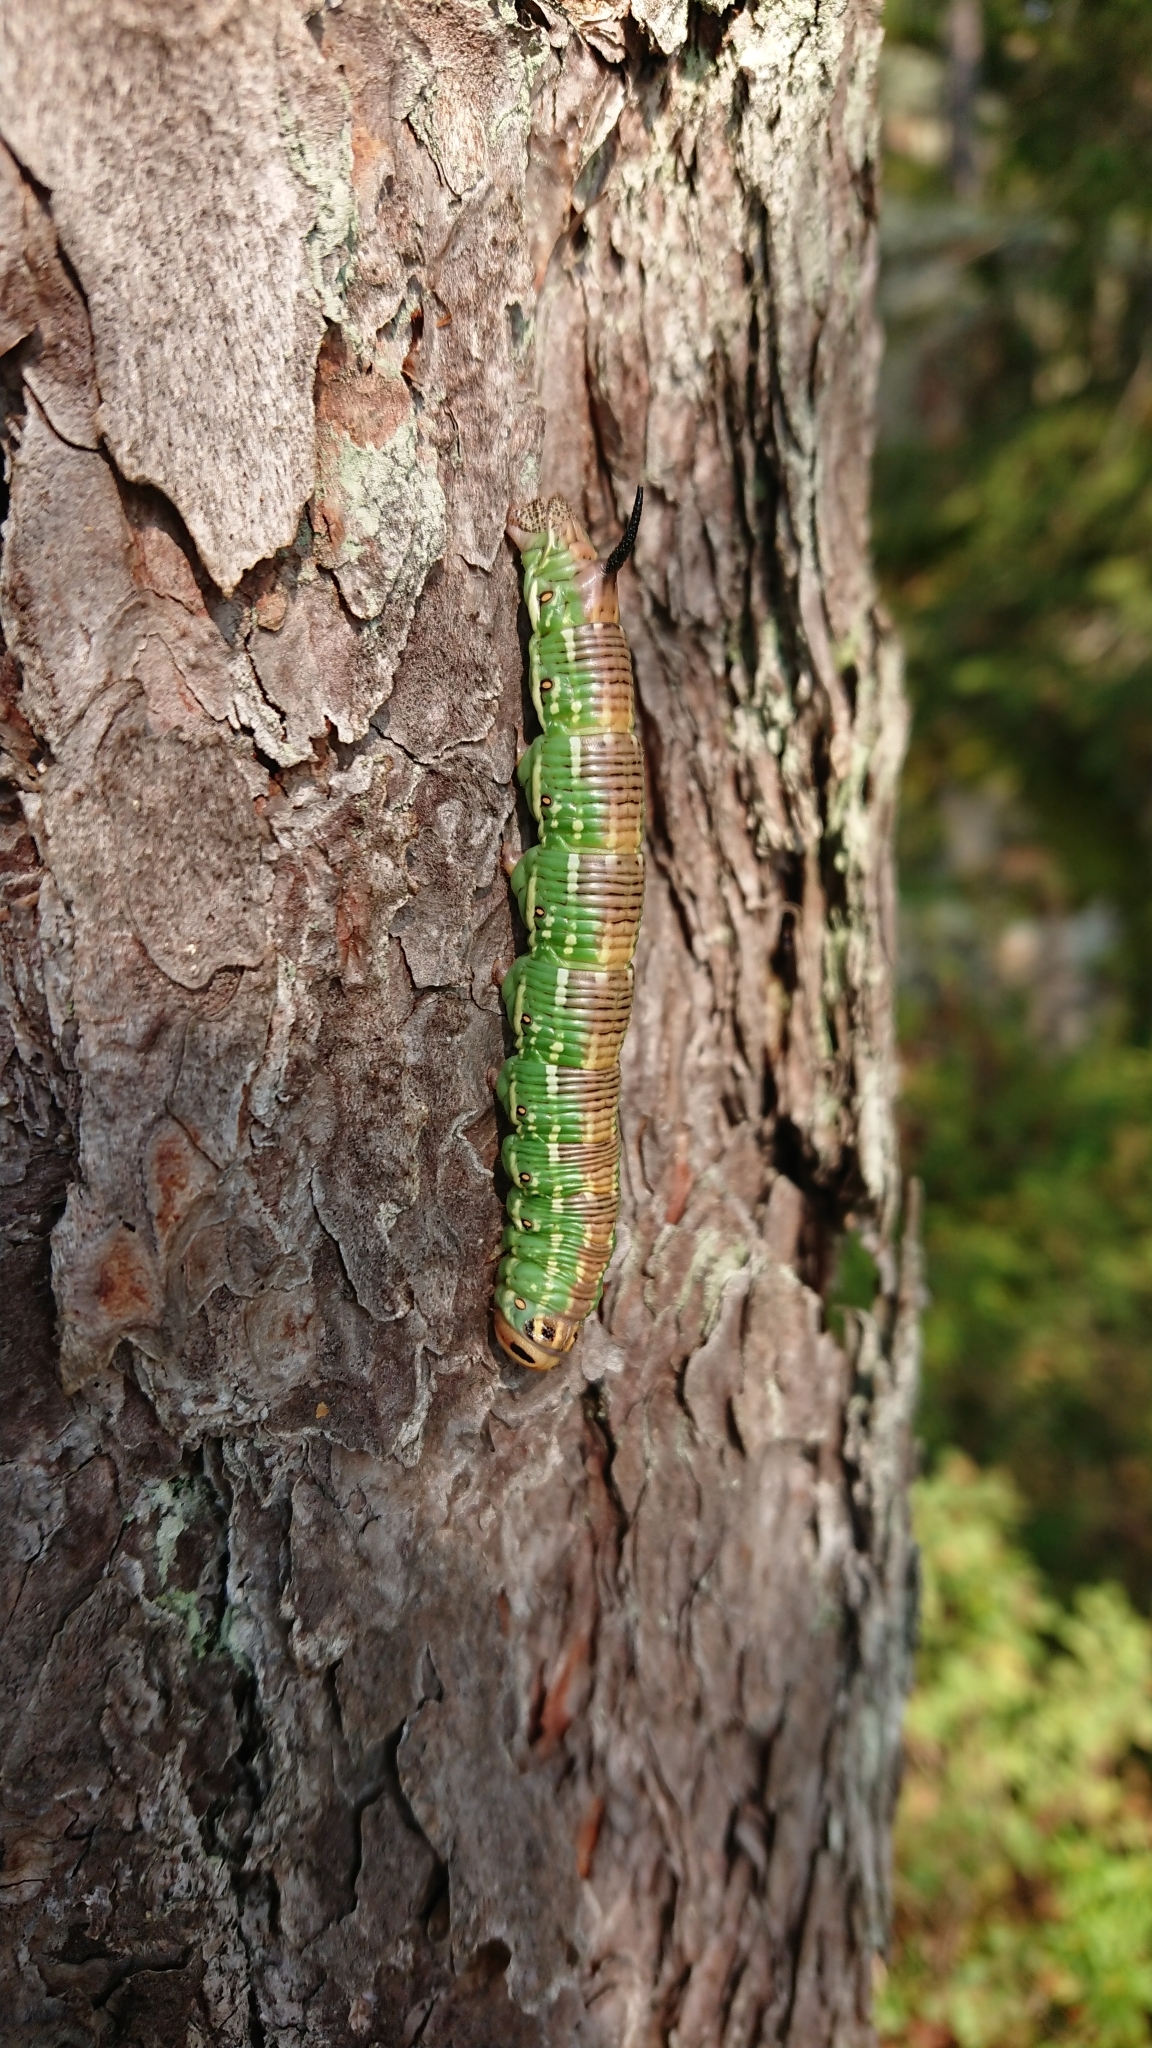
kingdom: Animalia
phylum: Arthropoda
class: Insecta
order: Lepidoptera
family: Sphingidae
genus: Sphinx
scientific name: Sphinx pinastri
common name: Pine hawk-moth
